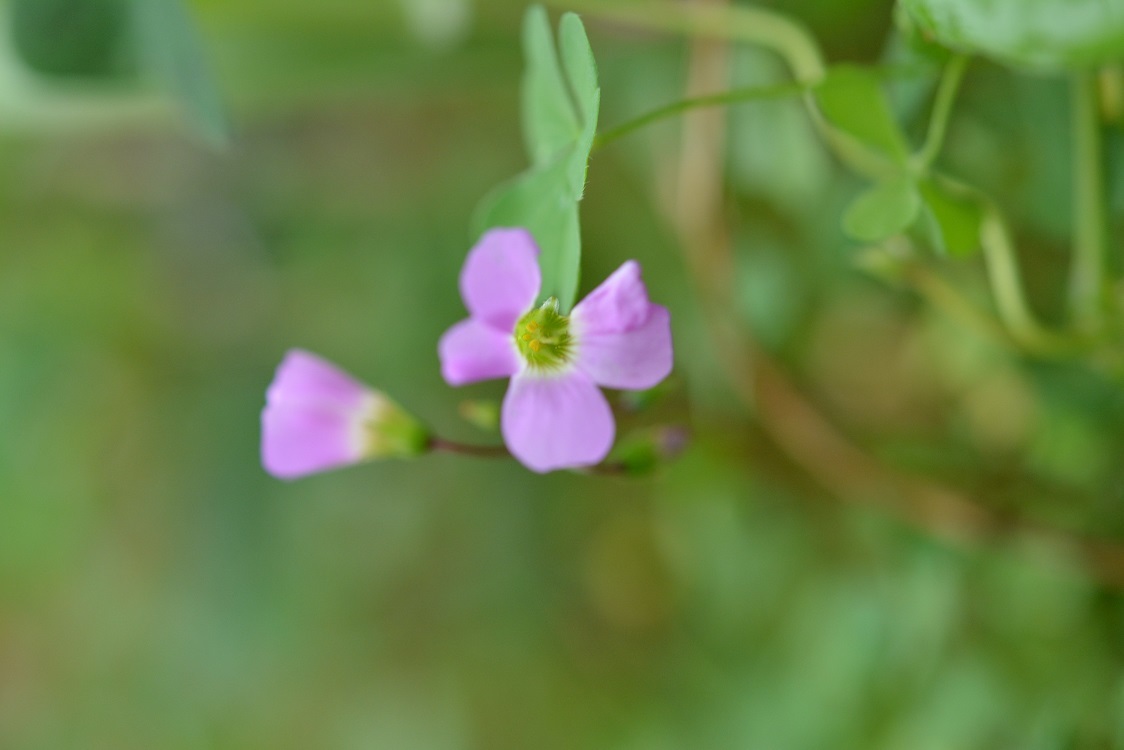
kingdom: Plantae
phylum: Tracheophyta
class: Magnoliopsida
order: Oxalidales
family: Oxalidaceae
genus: Oxalis
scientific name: Oxalis alpina
